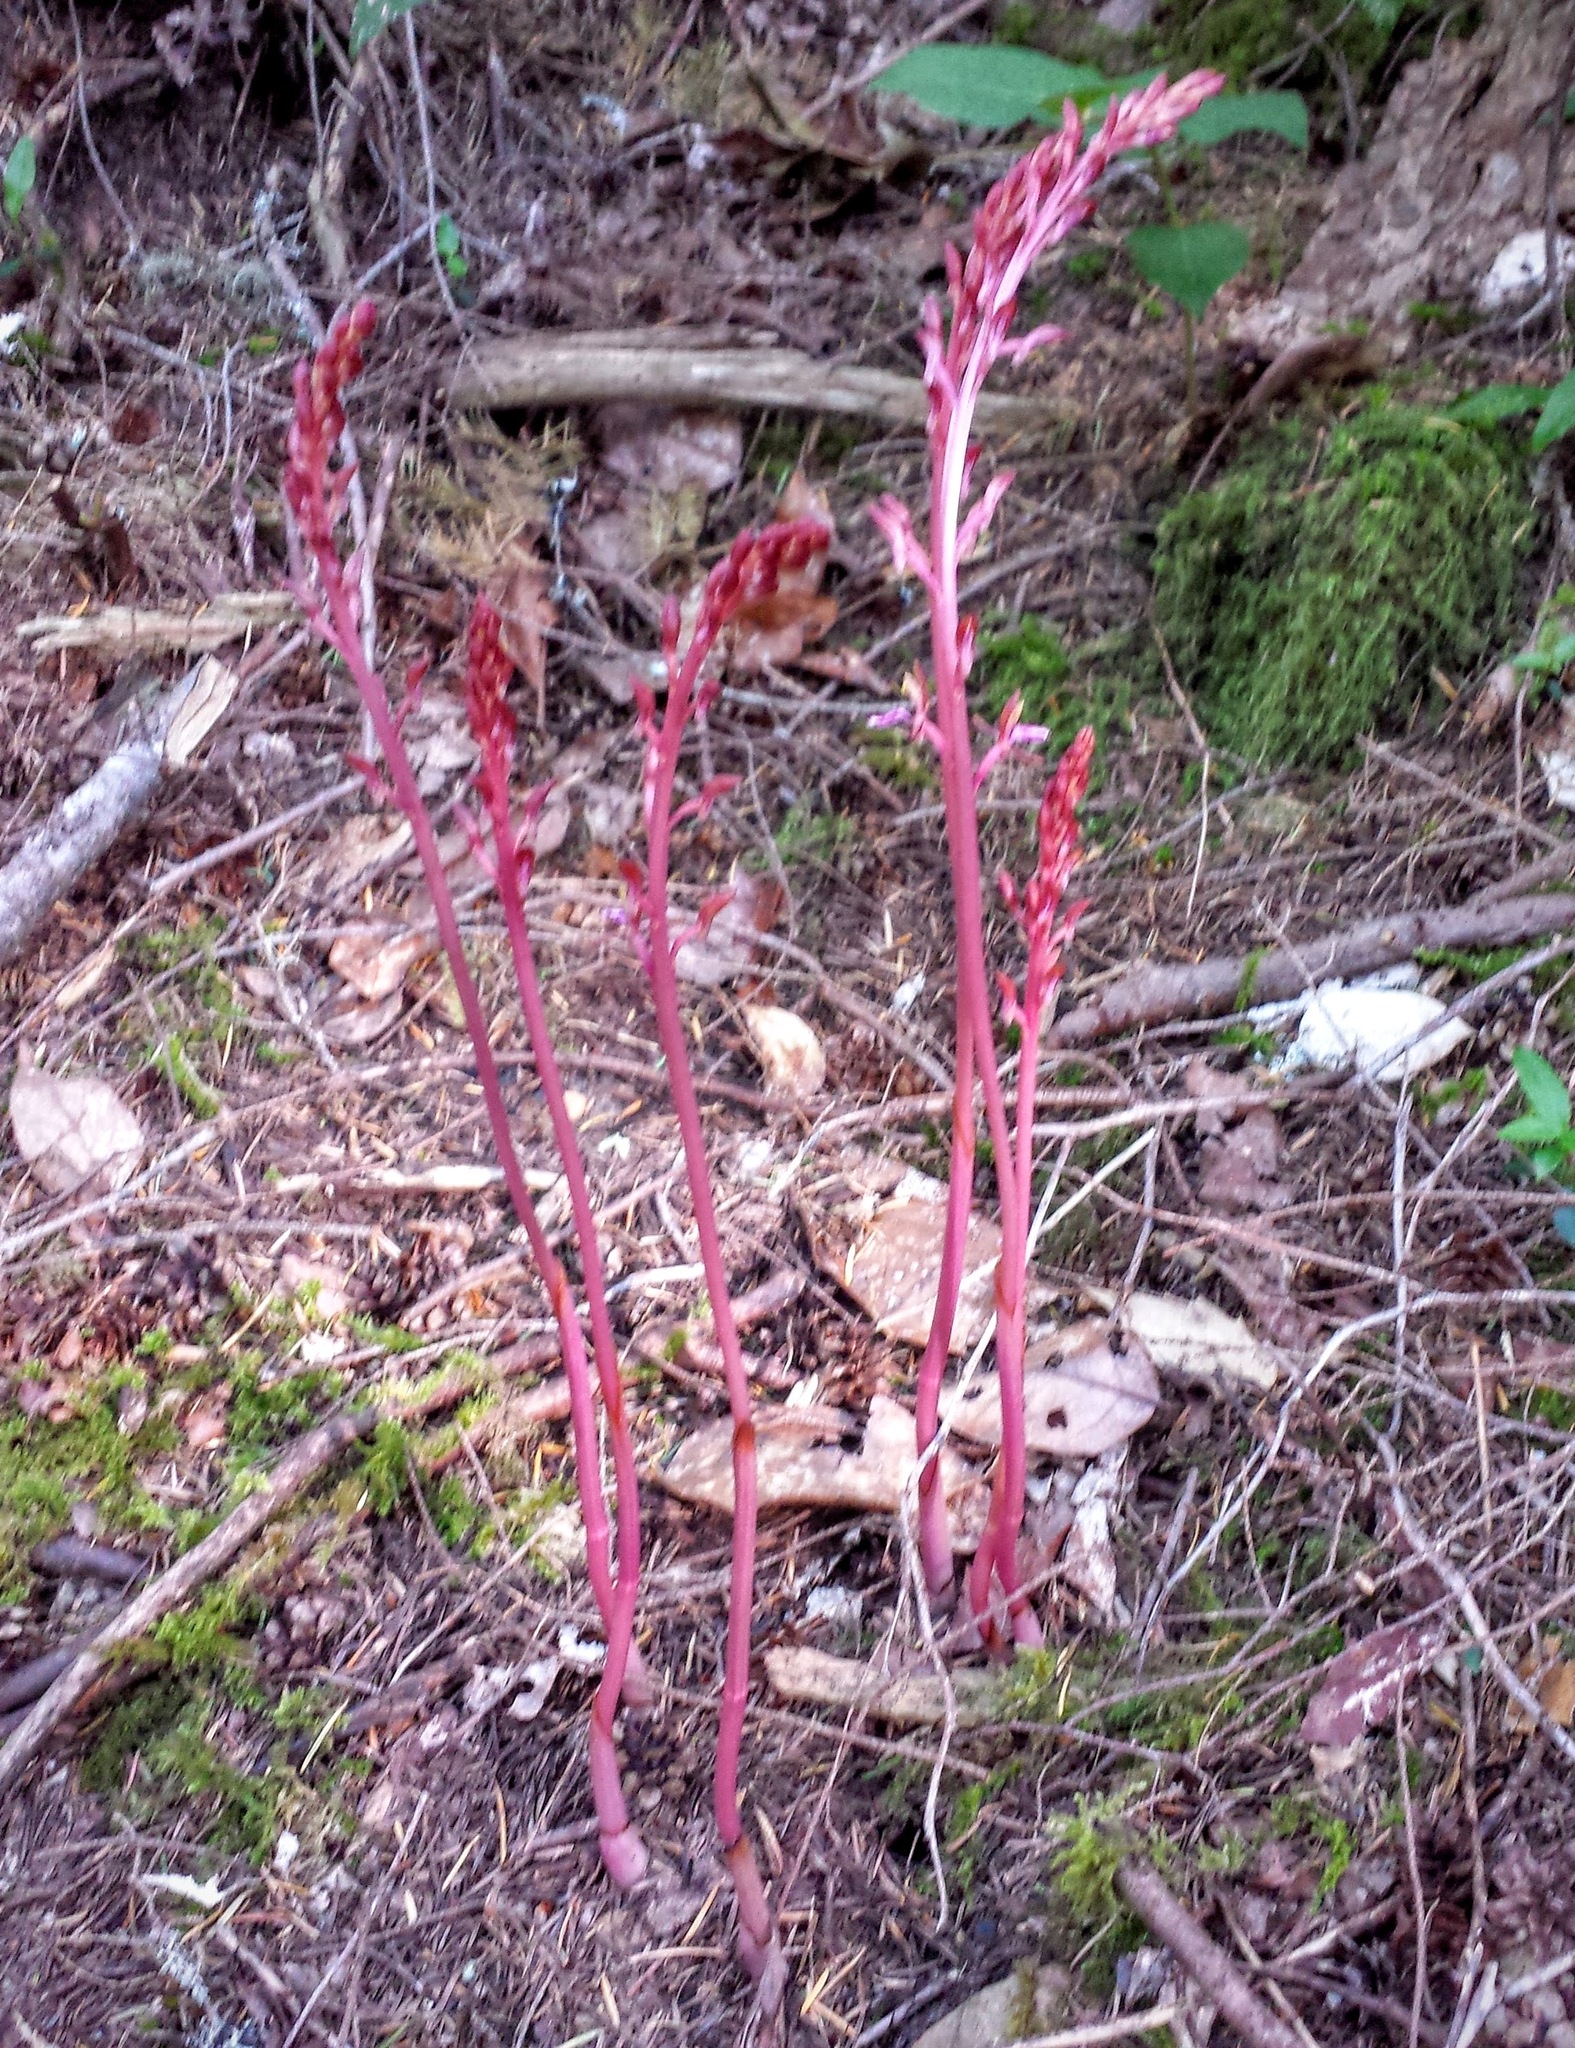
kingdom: Plantae
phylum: Tracheophyta
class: Liliopsida
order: Asparagales
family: Orchidaceae
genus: Corallorhiza
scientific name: Corallorhiza mertensiana
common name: Pacific coralroot
